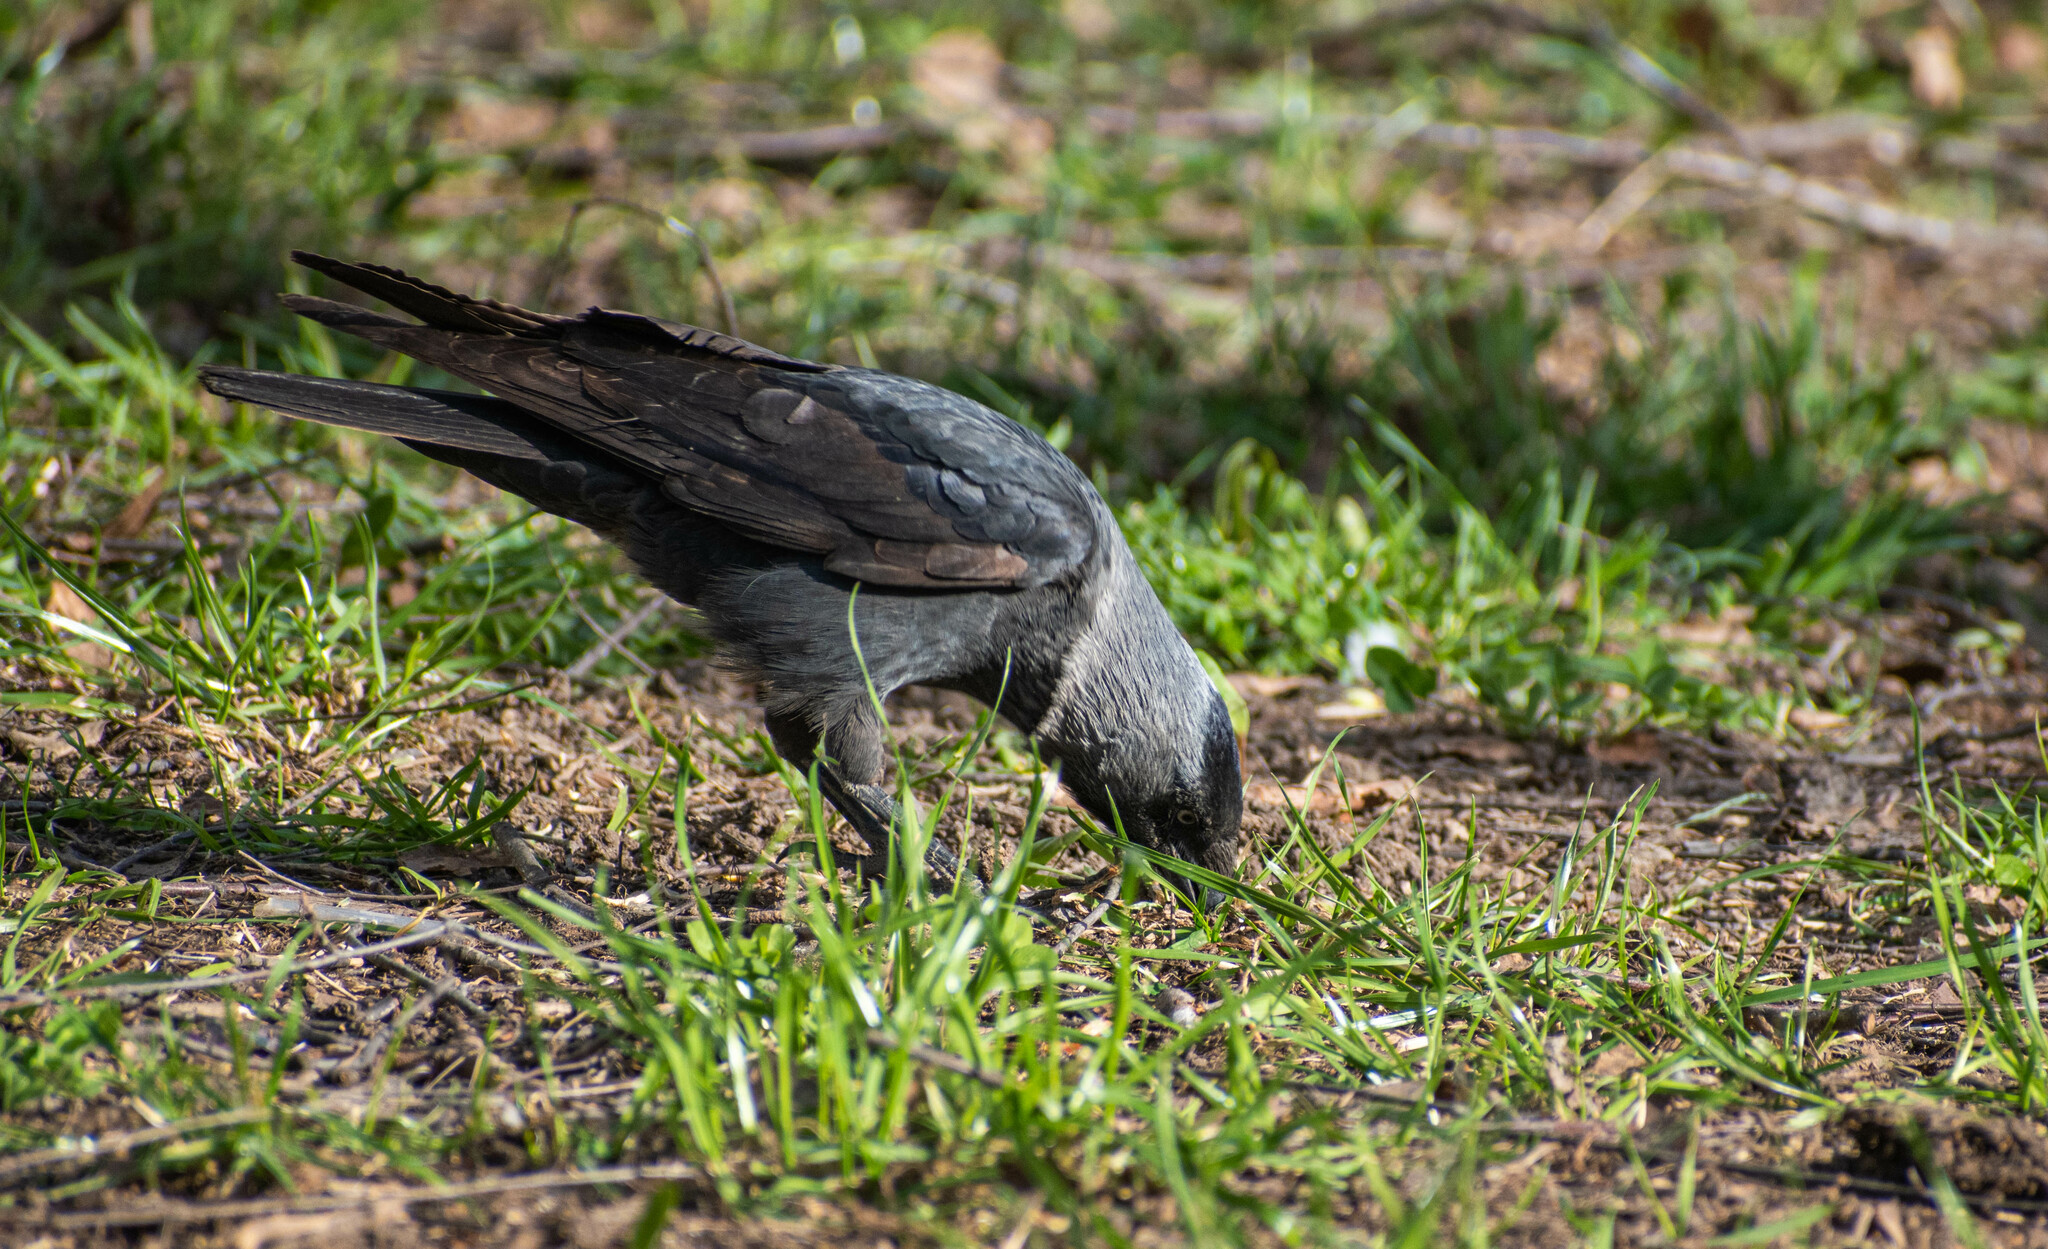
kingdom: Animalia
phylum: Chordata
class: Aves
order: Passeriformes
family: Corvidae
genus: Coloeus
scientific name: Coloeus monedula
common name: Western jackdaw
